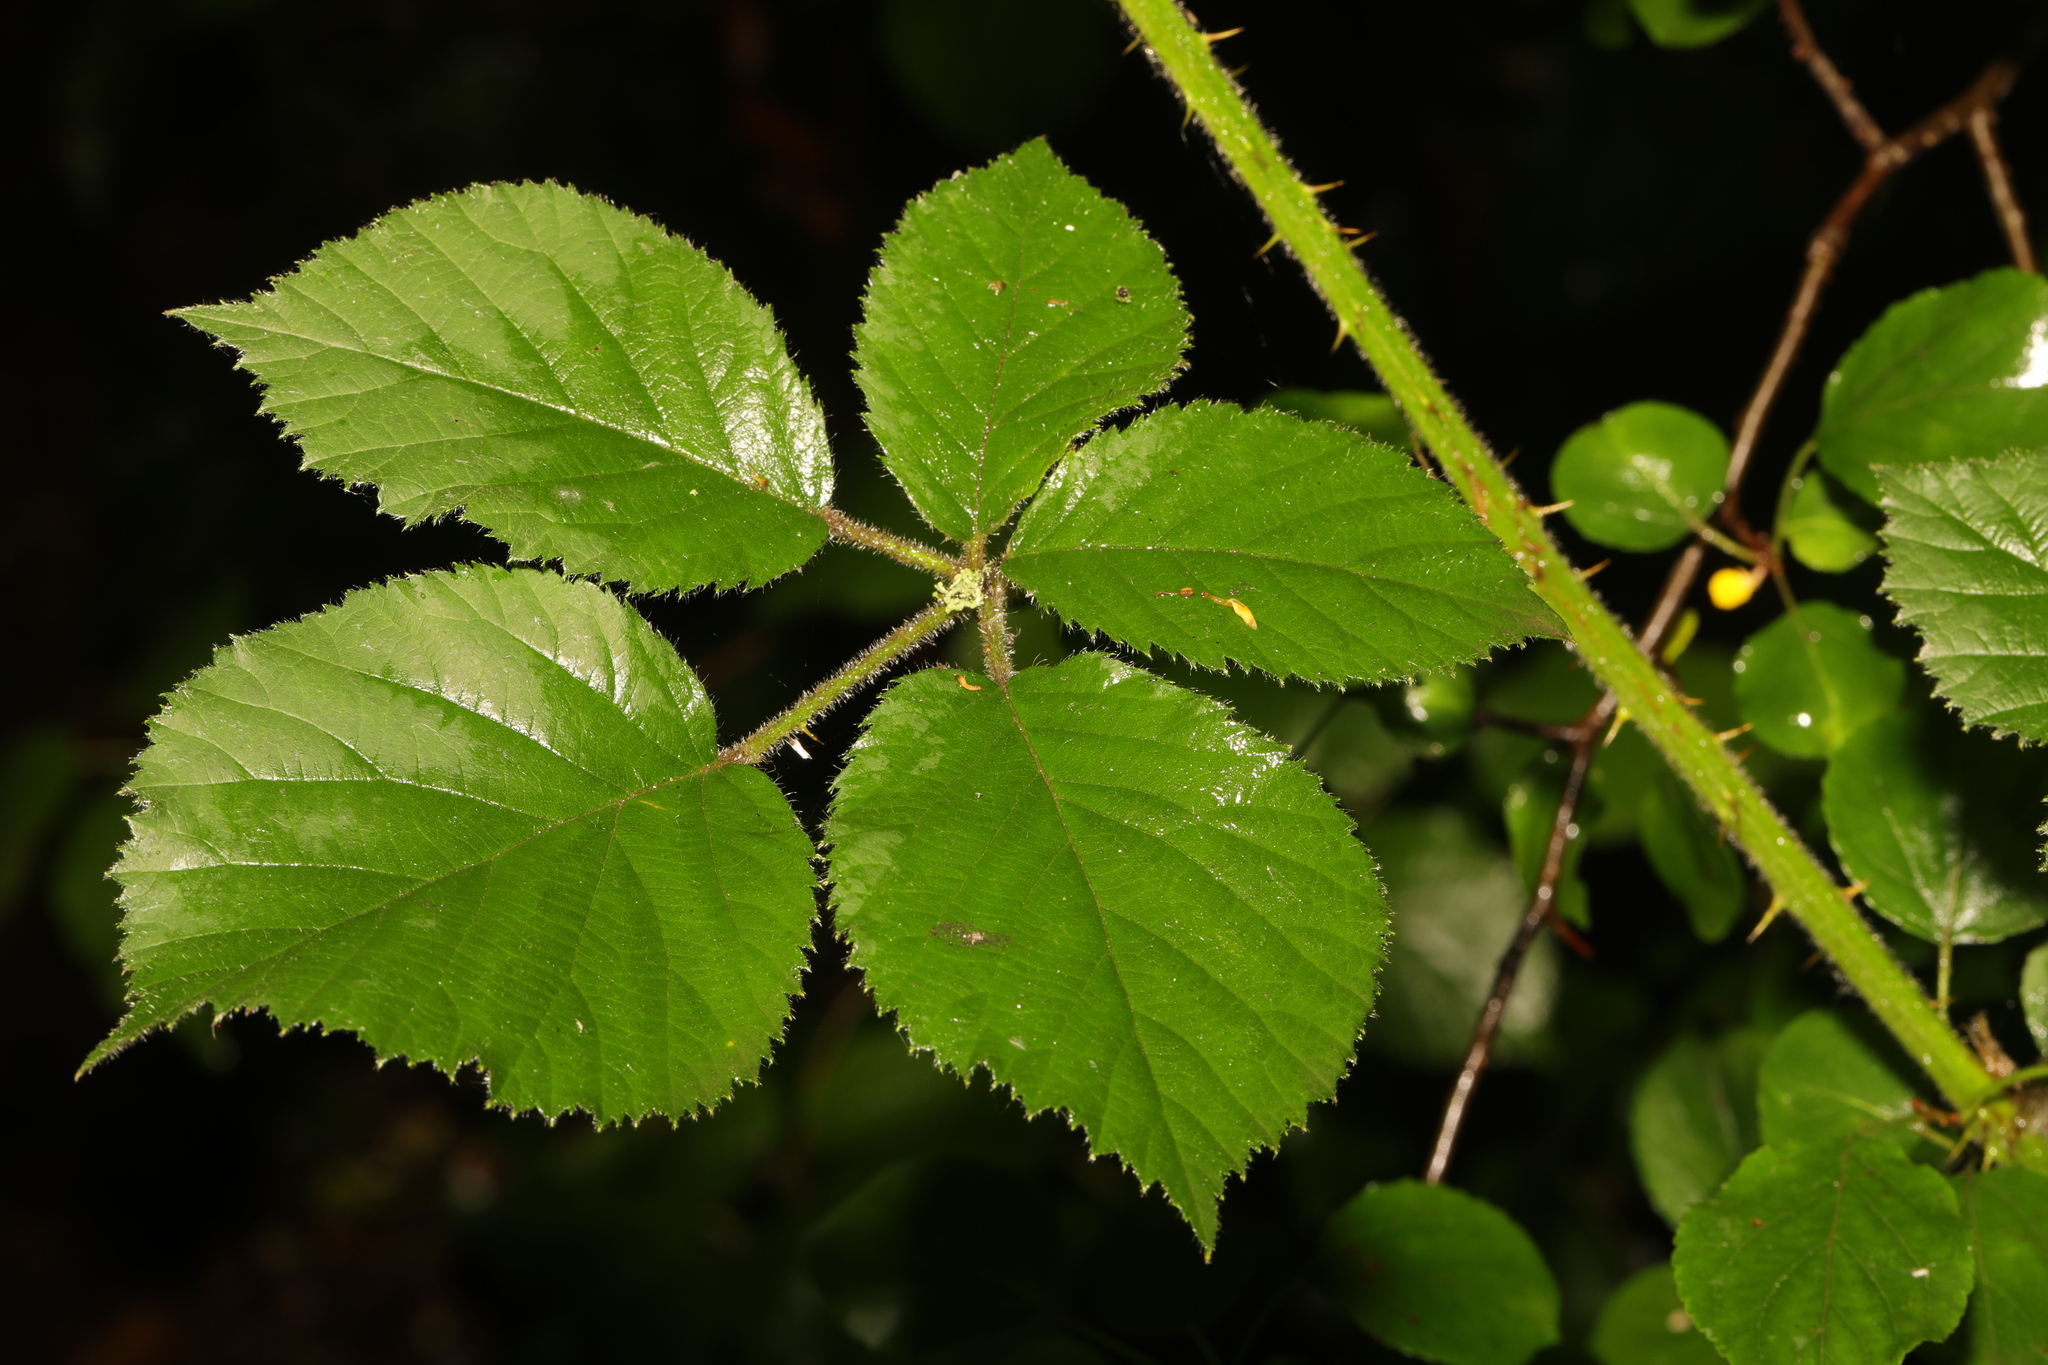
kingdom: Plantae
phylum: Tracheophyta
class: Magnoliopsida
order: Rosales
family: Rosaceae
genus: Rubus
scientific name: Rubus vestitus
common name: European blackberry
